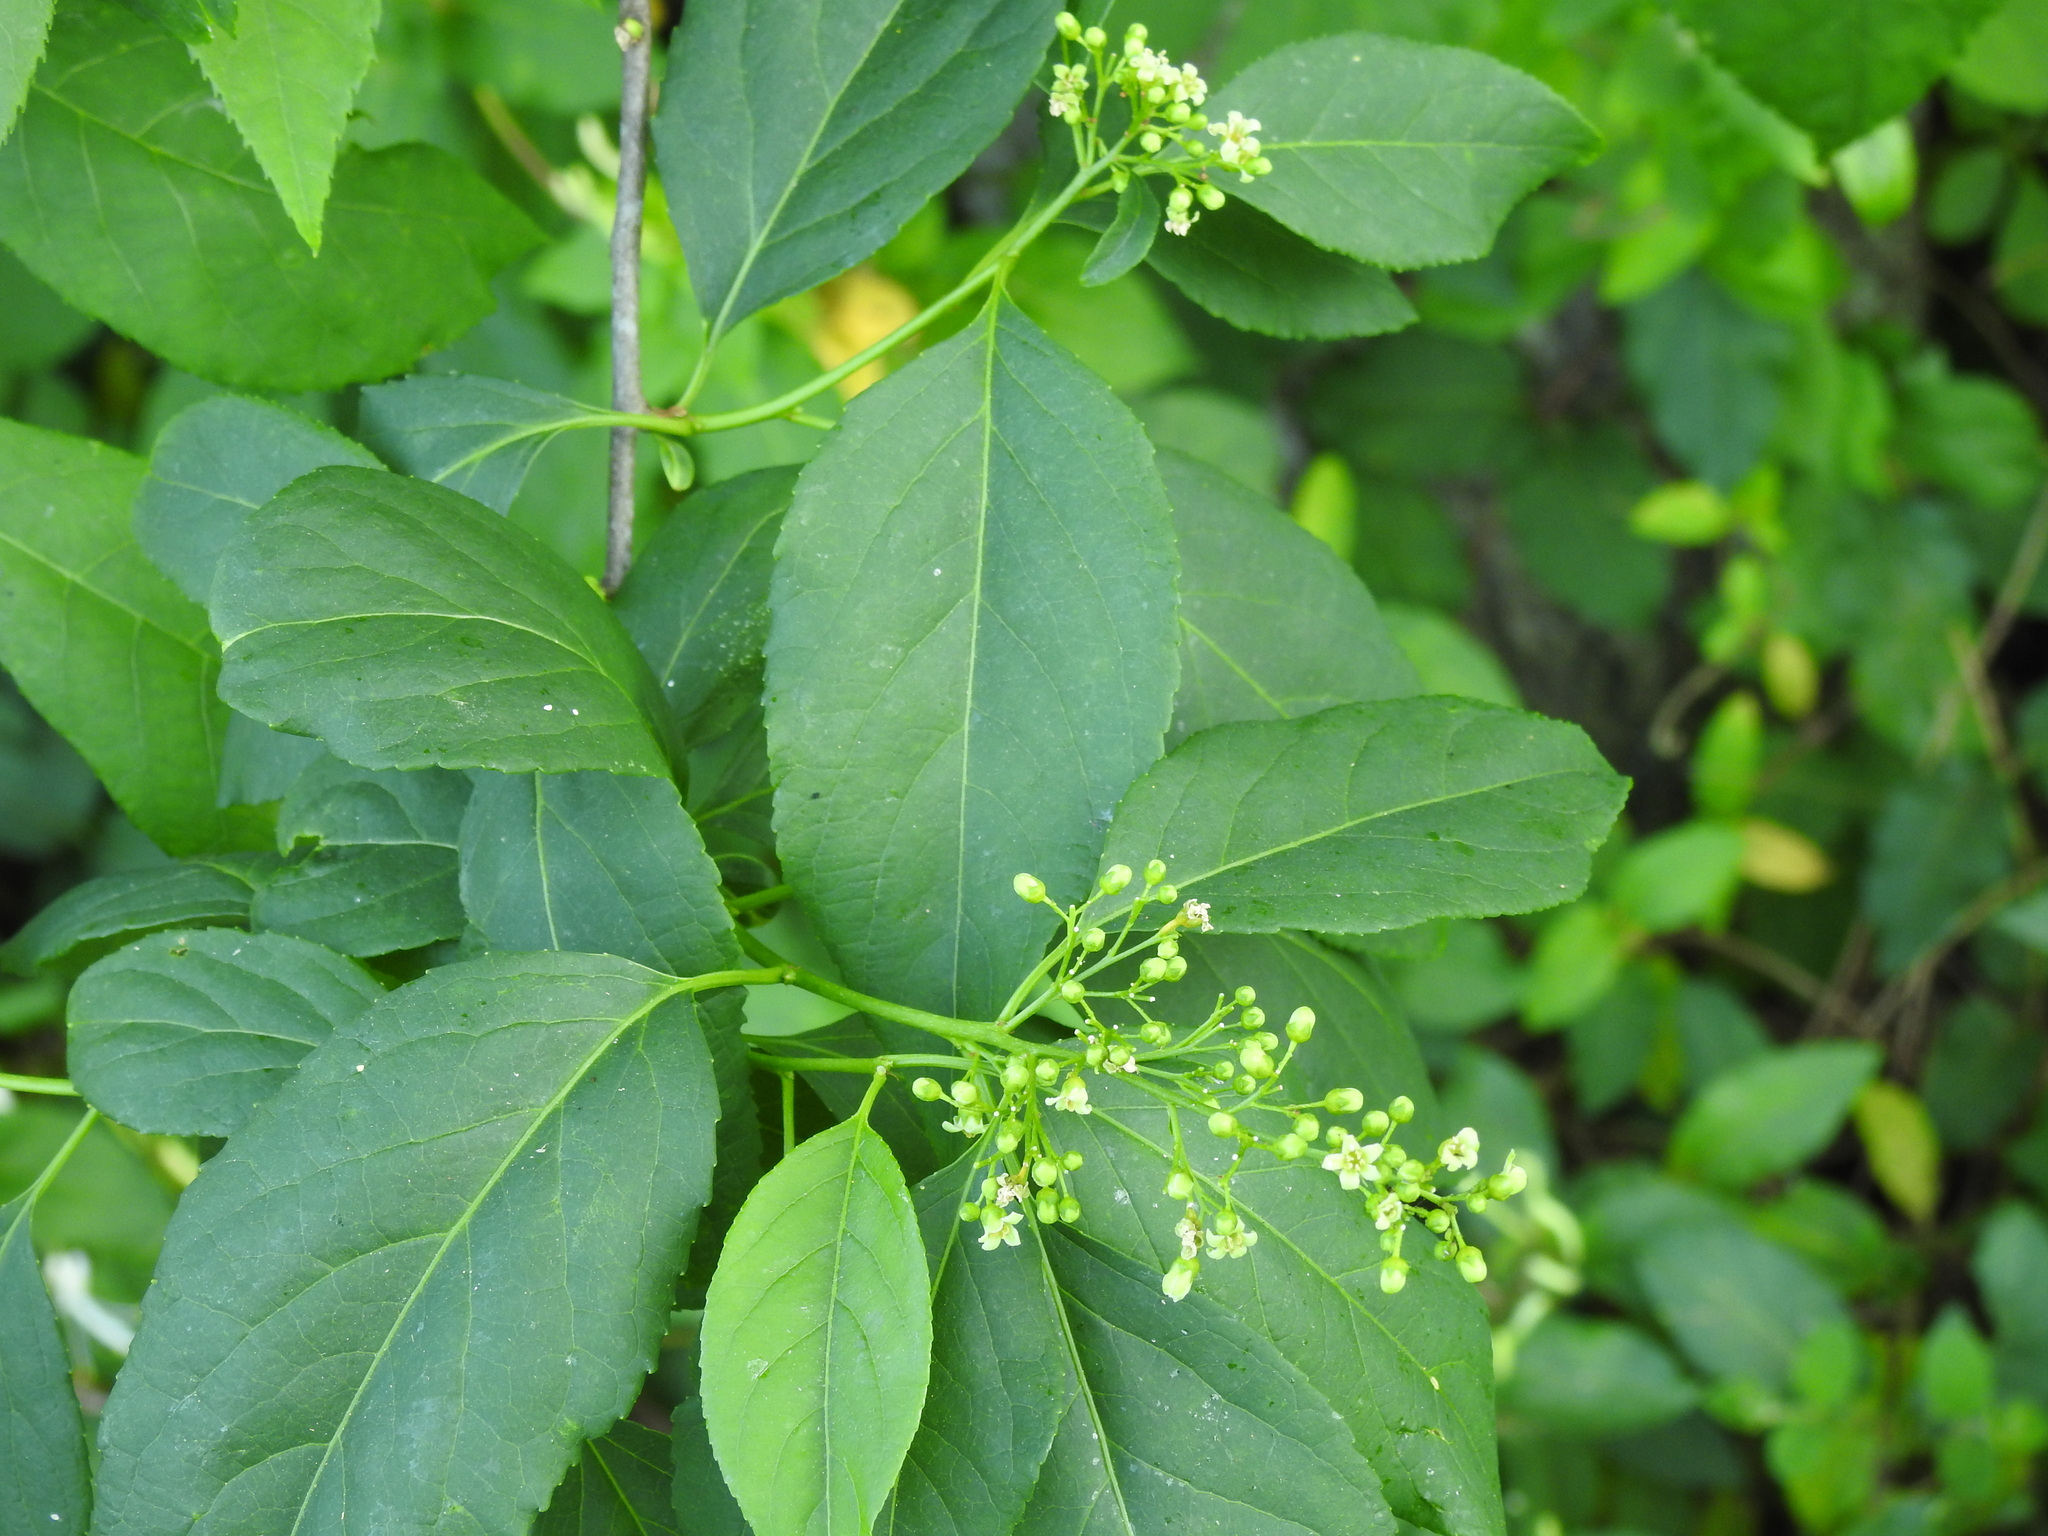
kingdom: Plantae
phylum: Tracheophyta
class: Magnoliopsida
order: Celastrales
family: Celastraceae
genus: Celastrus
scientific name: Celastrus scandens
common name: American bittersweet
